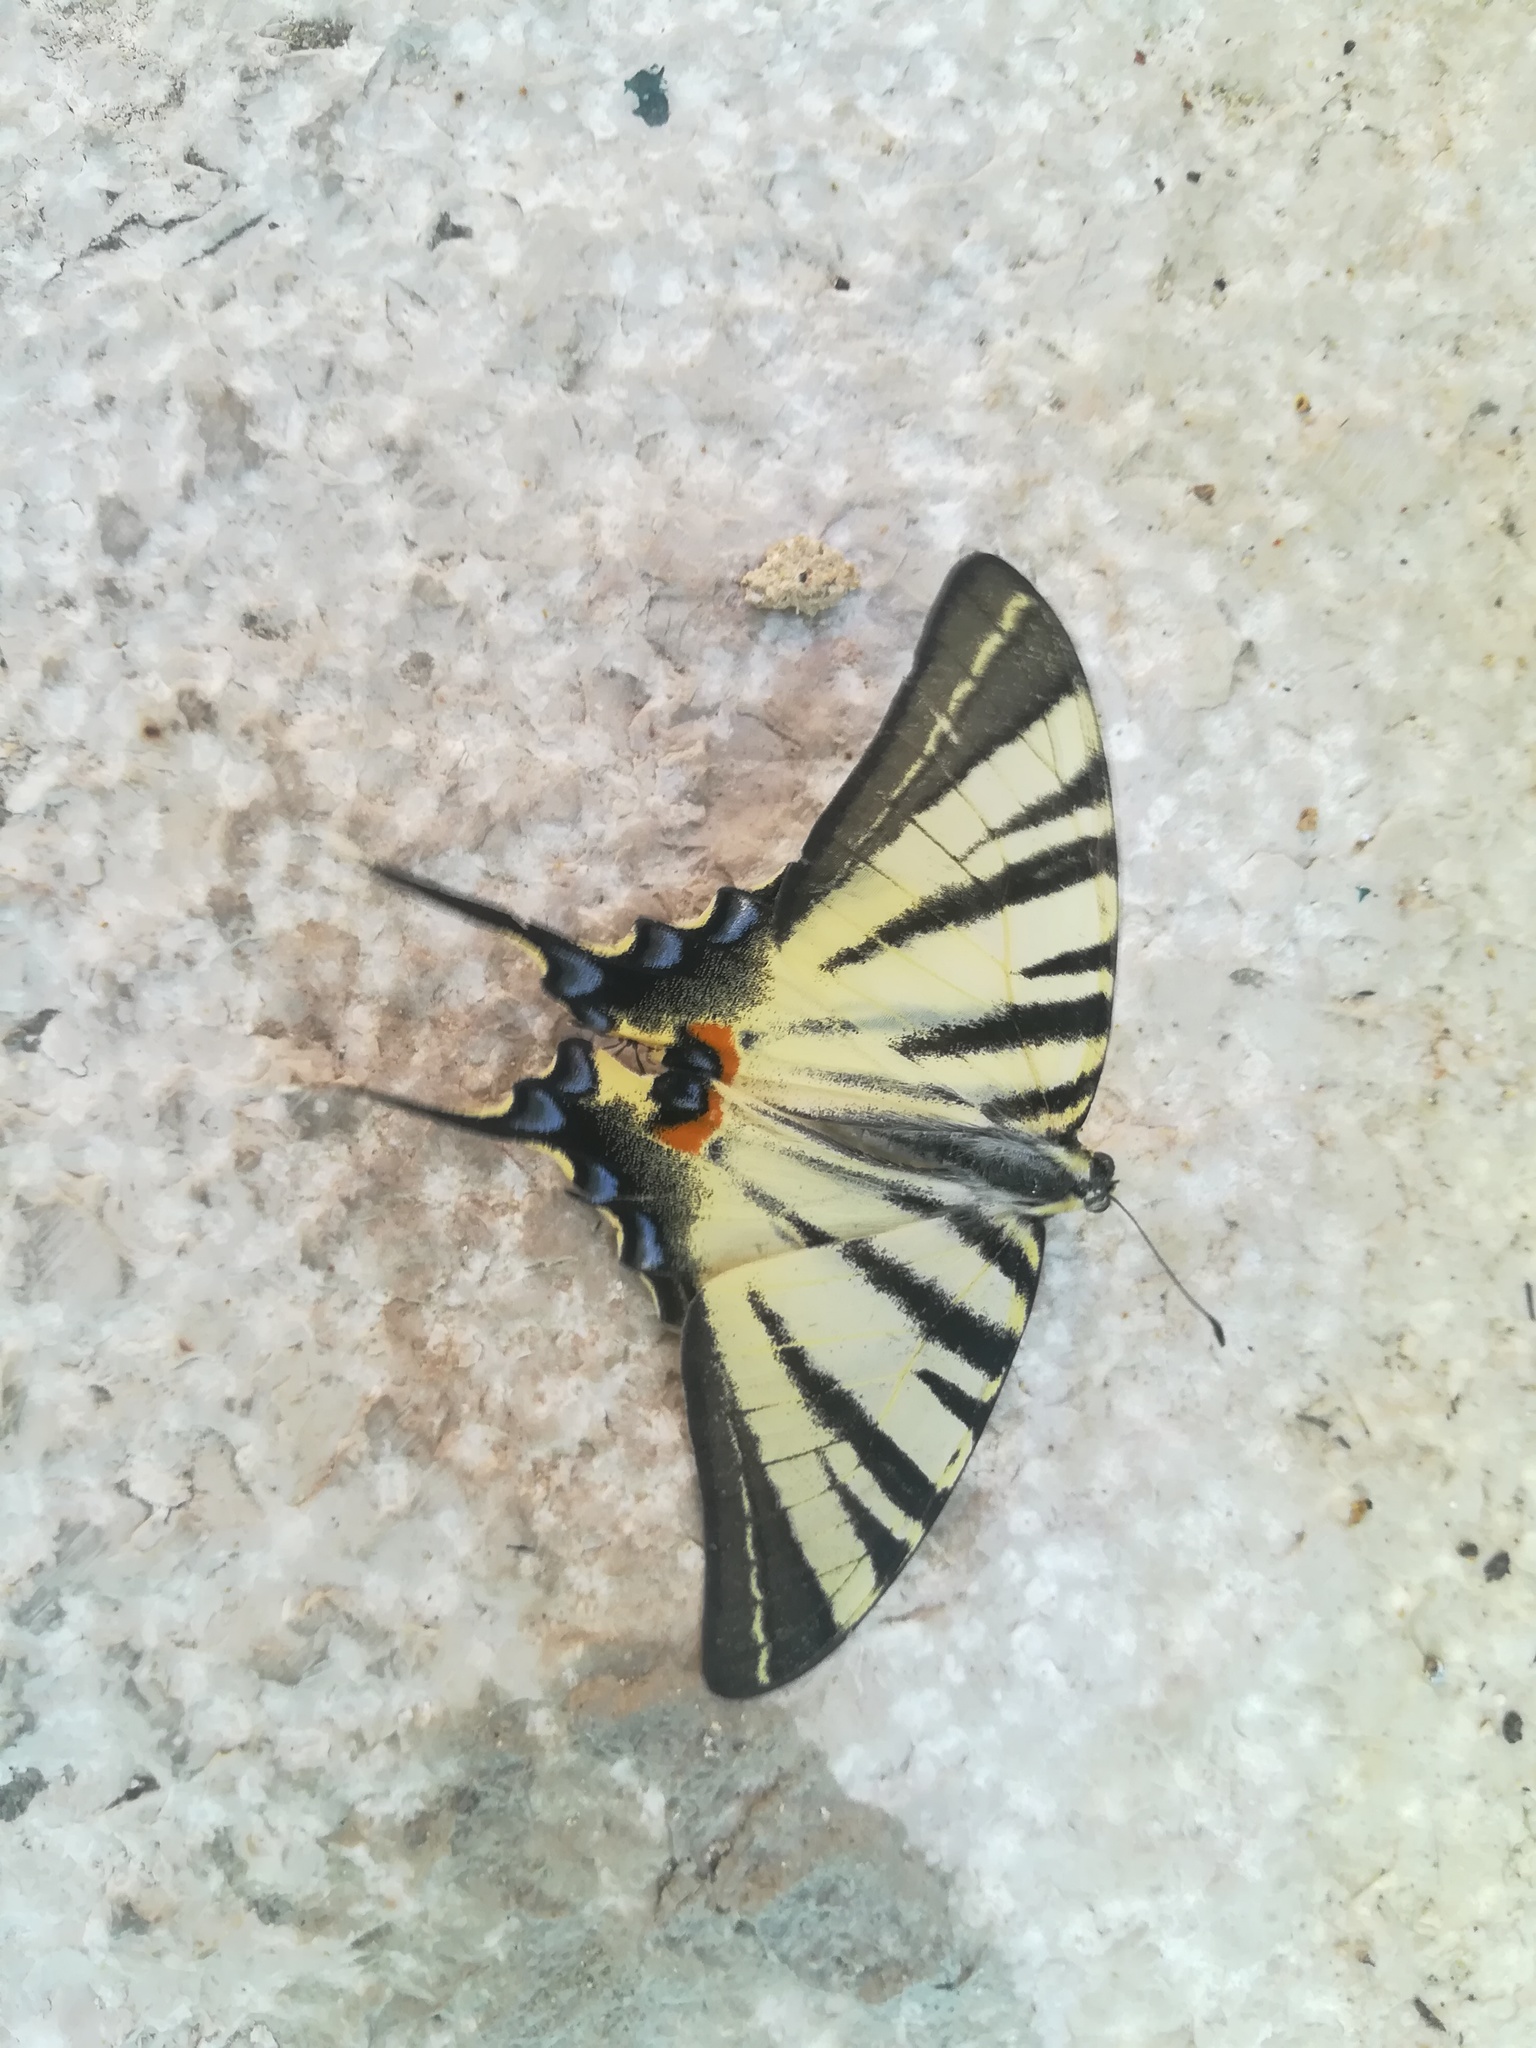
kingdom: Animalia
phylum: Arthropoda
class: Insecta
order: Lepidoptera
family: Papilionidae
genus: Iphiclides
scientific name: Iphiclides podalirius
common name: Scarce swallowtail
